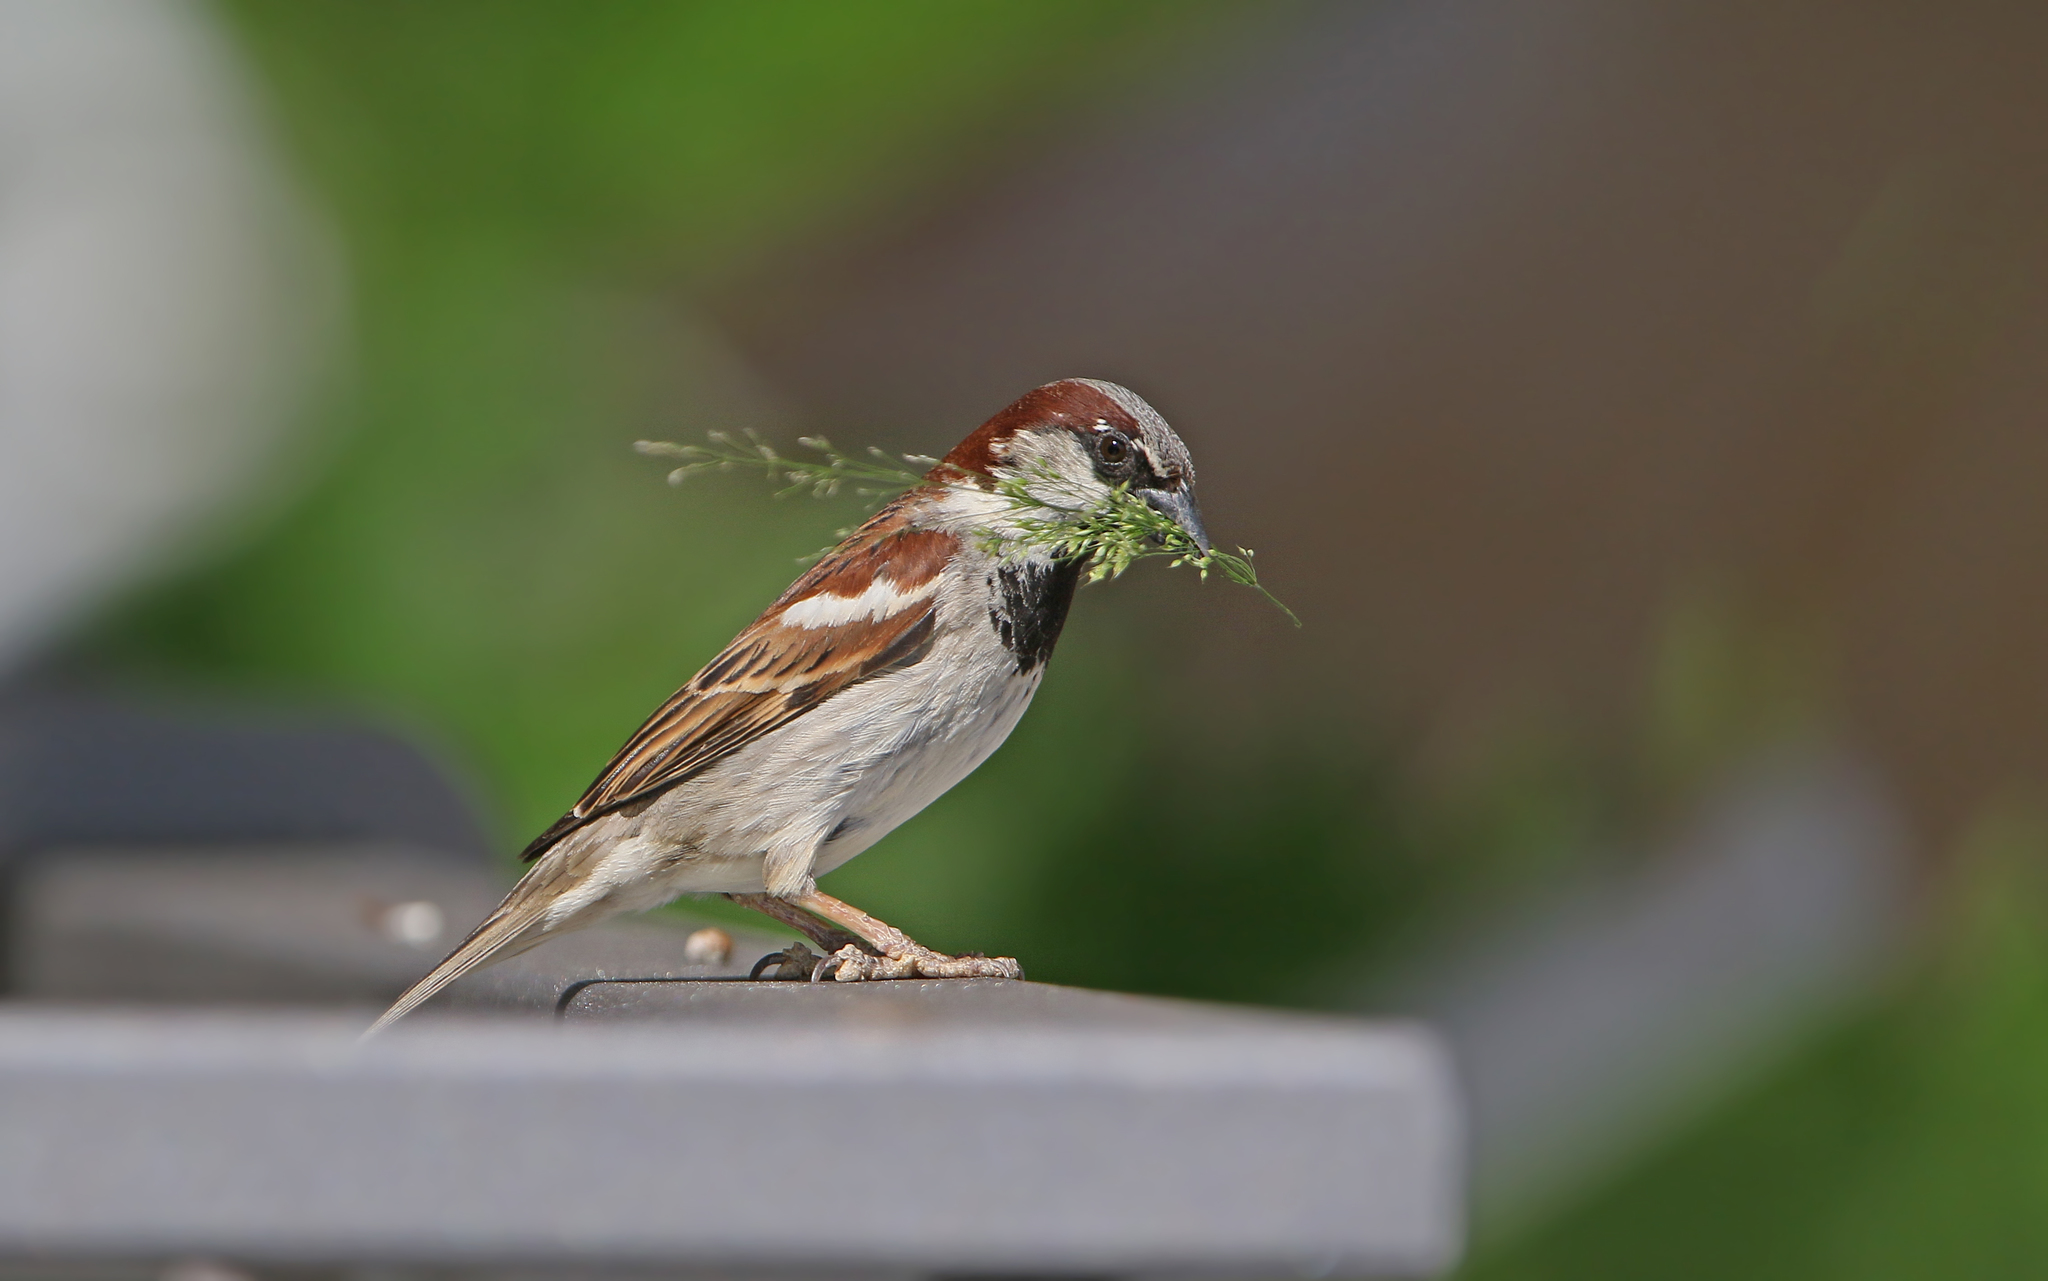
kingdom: Animalia
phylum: Chordata
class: Aves
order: Passeriformes
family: Passeridae
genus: Passer
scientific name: Passer domesticus
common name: House sparrow
